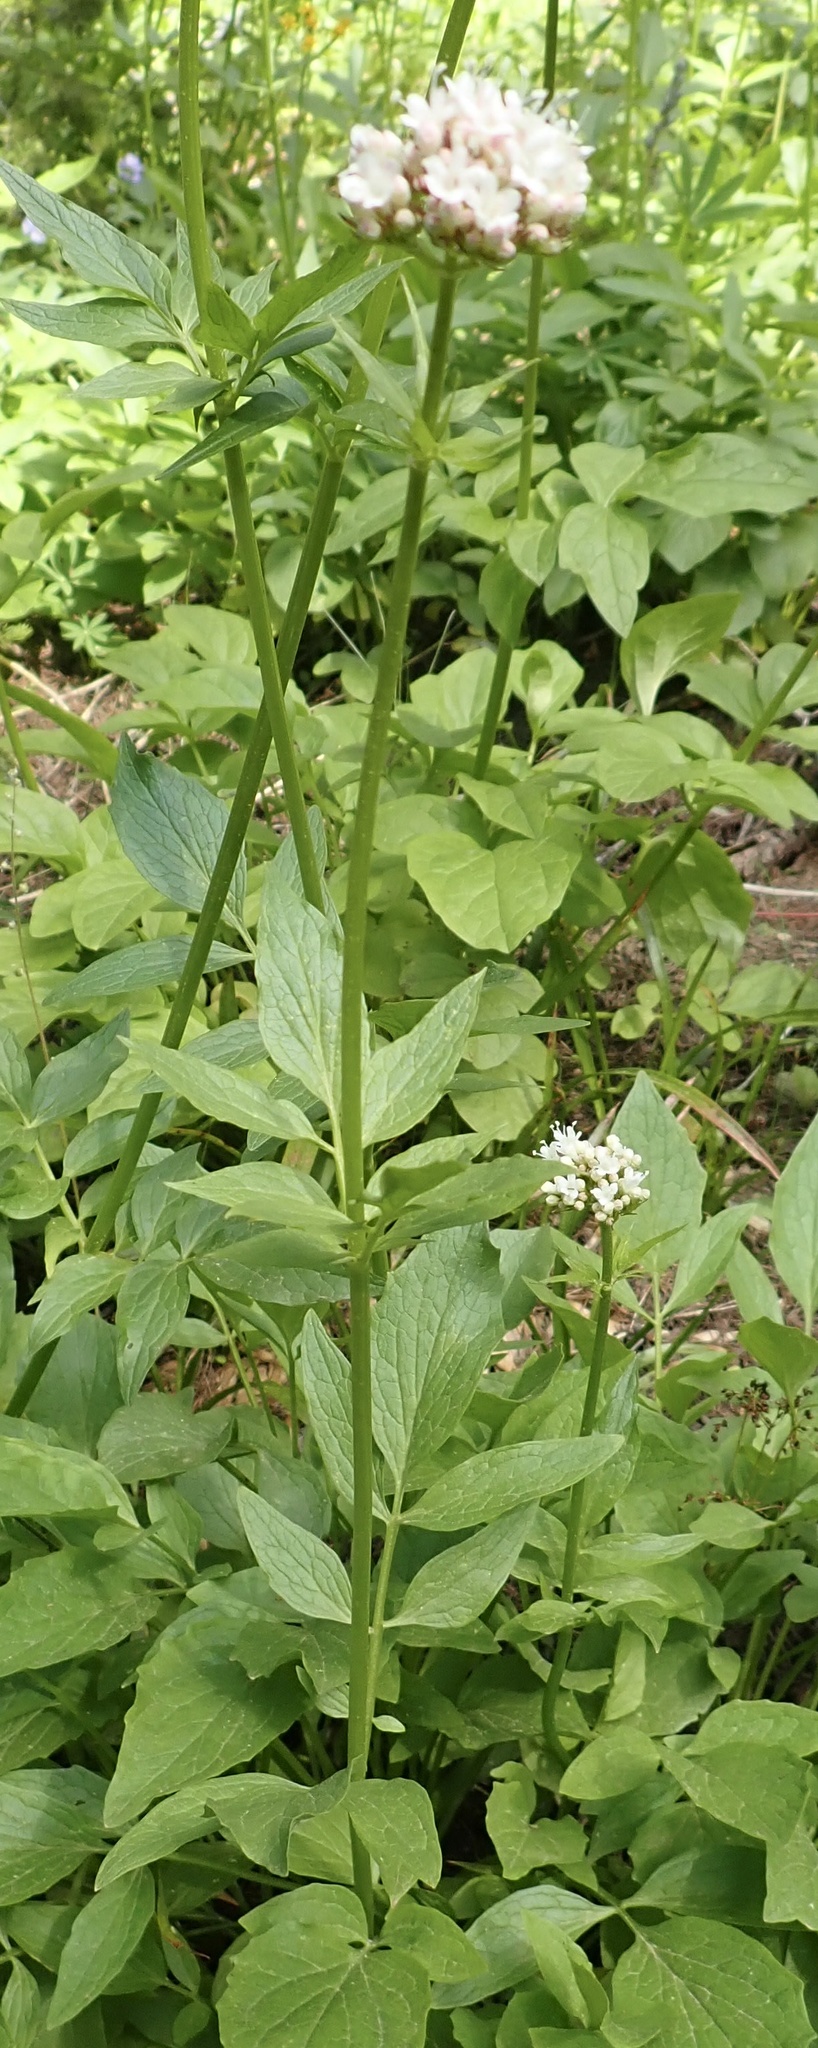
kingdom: Plantae
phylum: Tracheophyta
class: Magnoliopsida
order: Dipsacales
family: Caprifoliaceae
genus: Valeriana
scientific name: Valeriana sitchensis
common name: Pacific valerian
